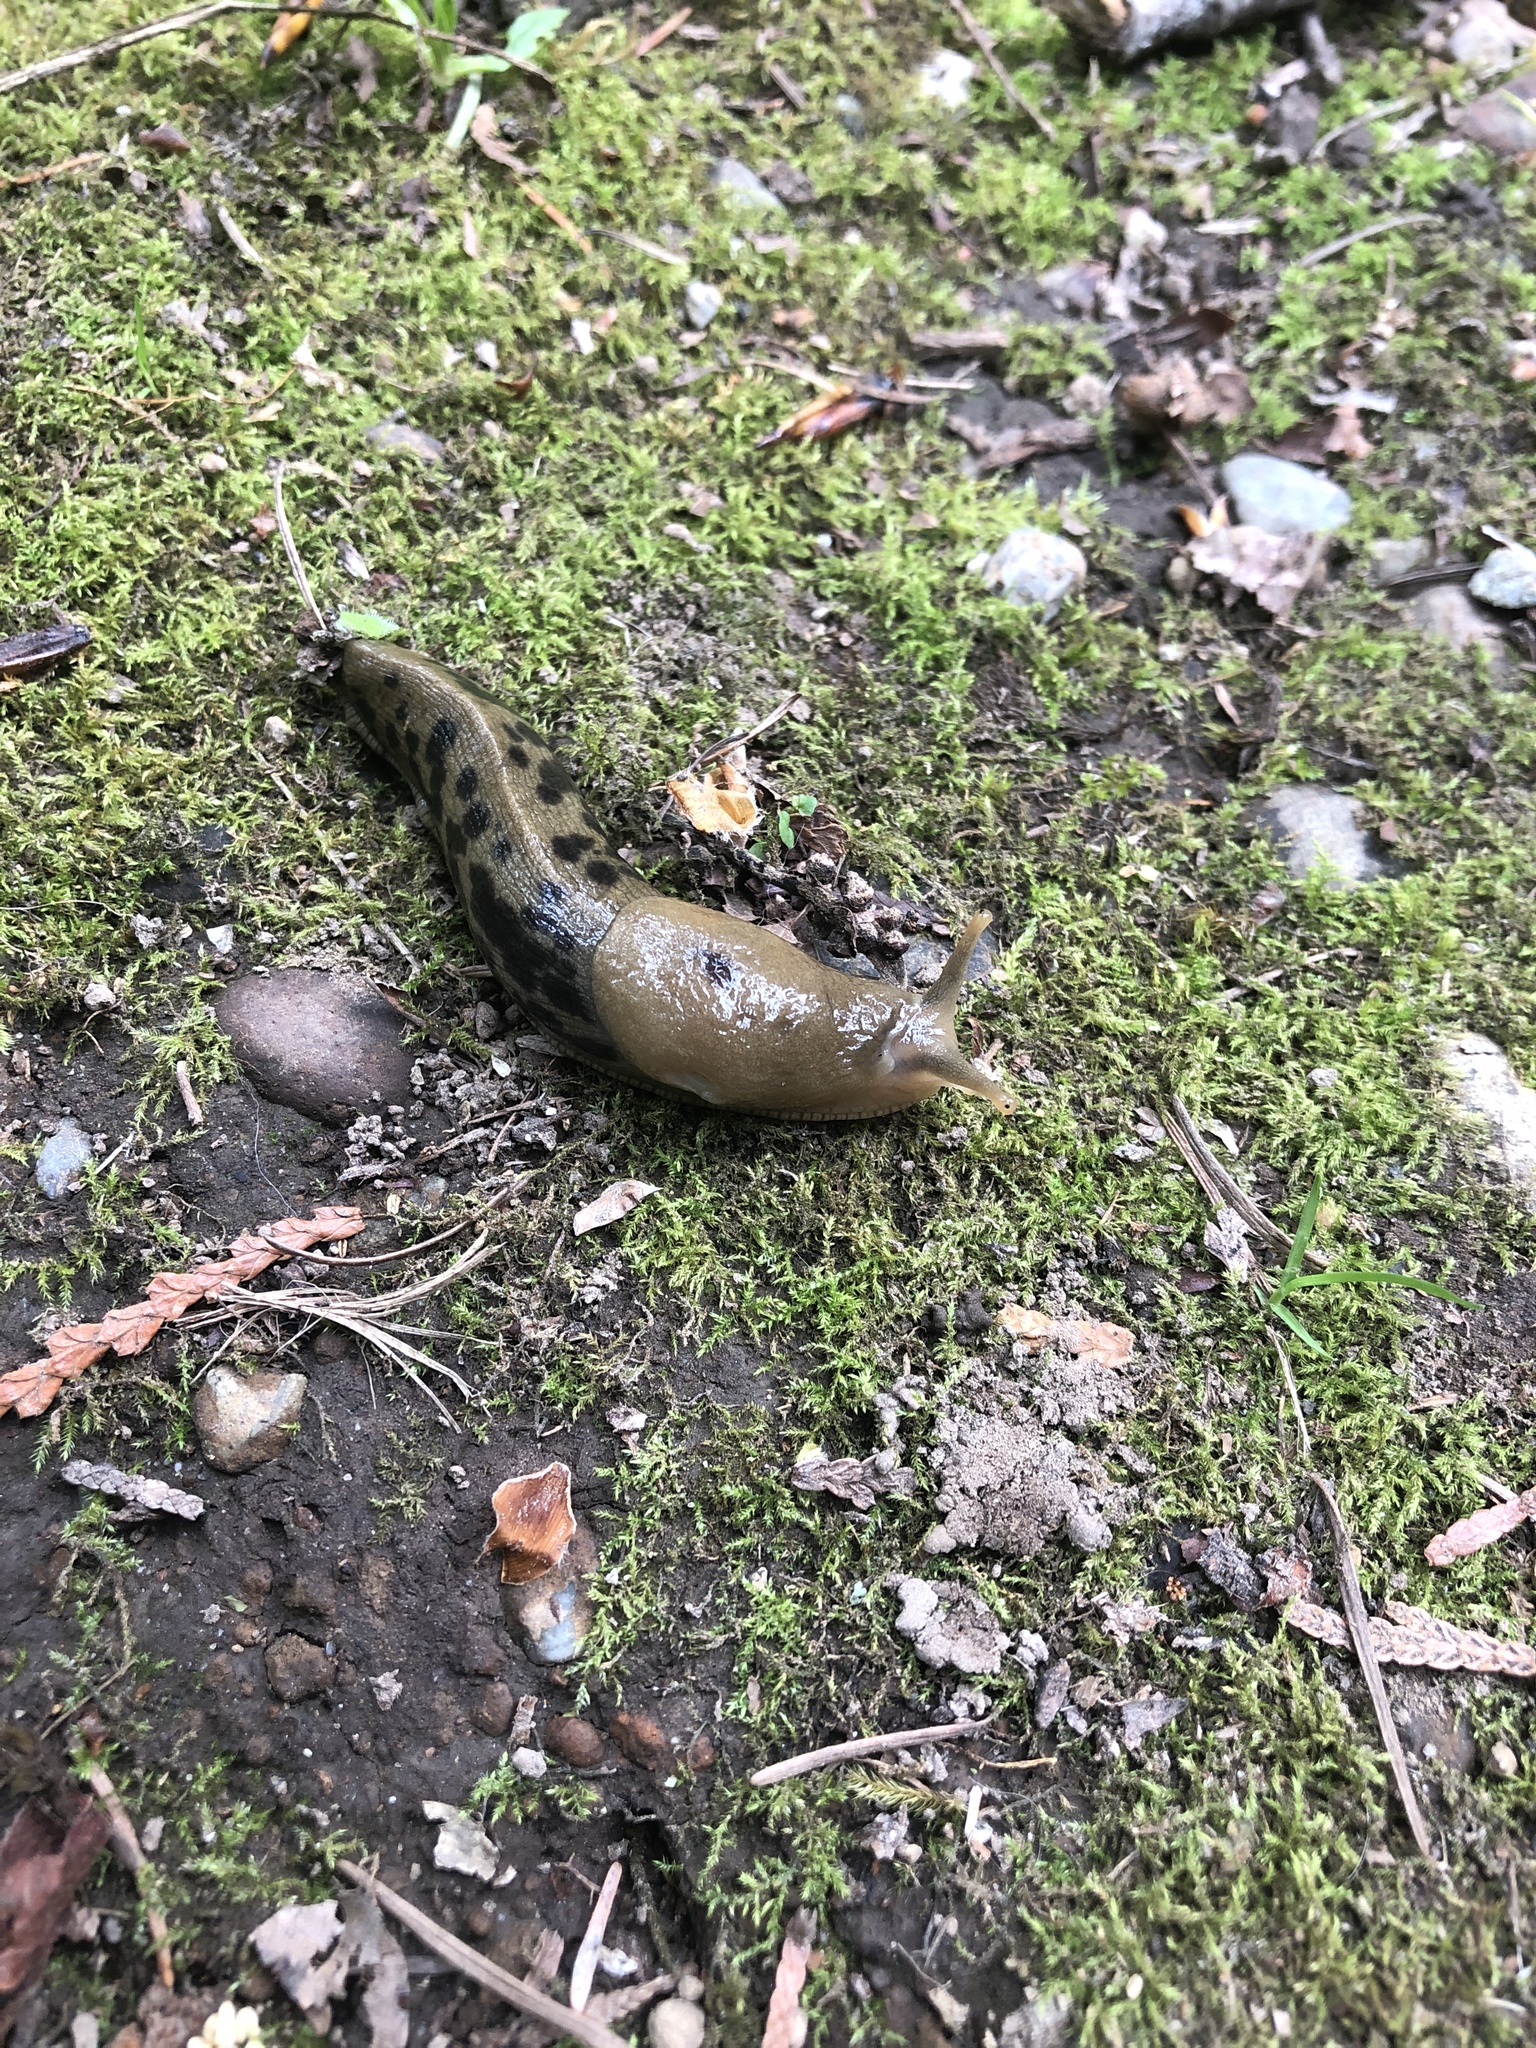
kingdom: Animalia
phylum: Mollusca
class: Gastropoda
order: Stylommatophora
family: Ariolimacidae
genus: Ariolimax
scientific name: Ariolimax columbianus
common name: Pacific banana slug
